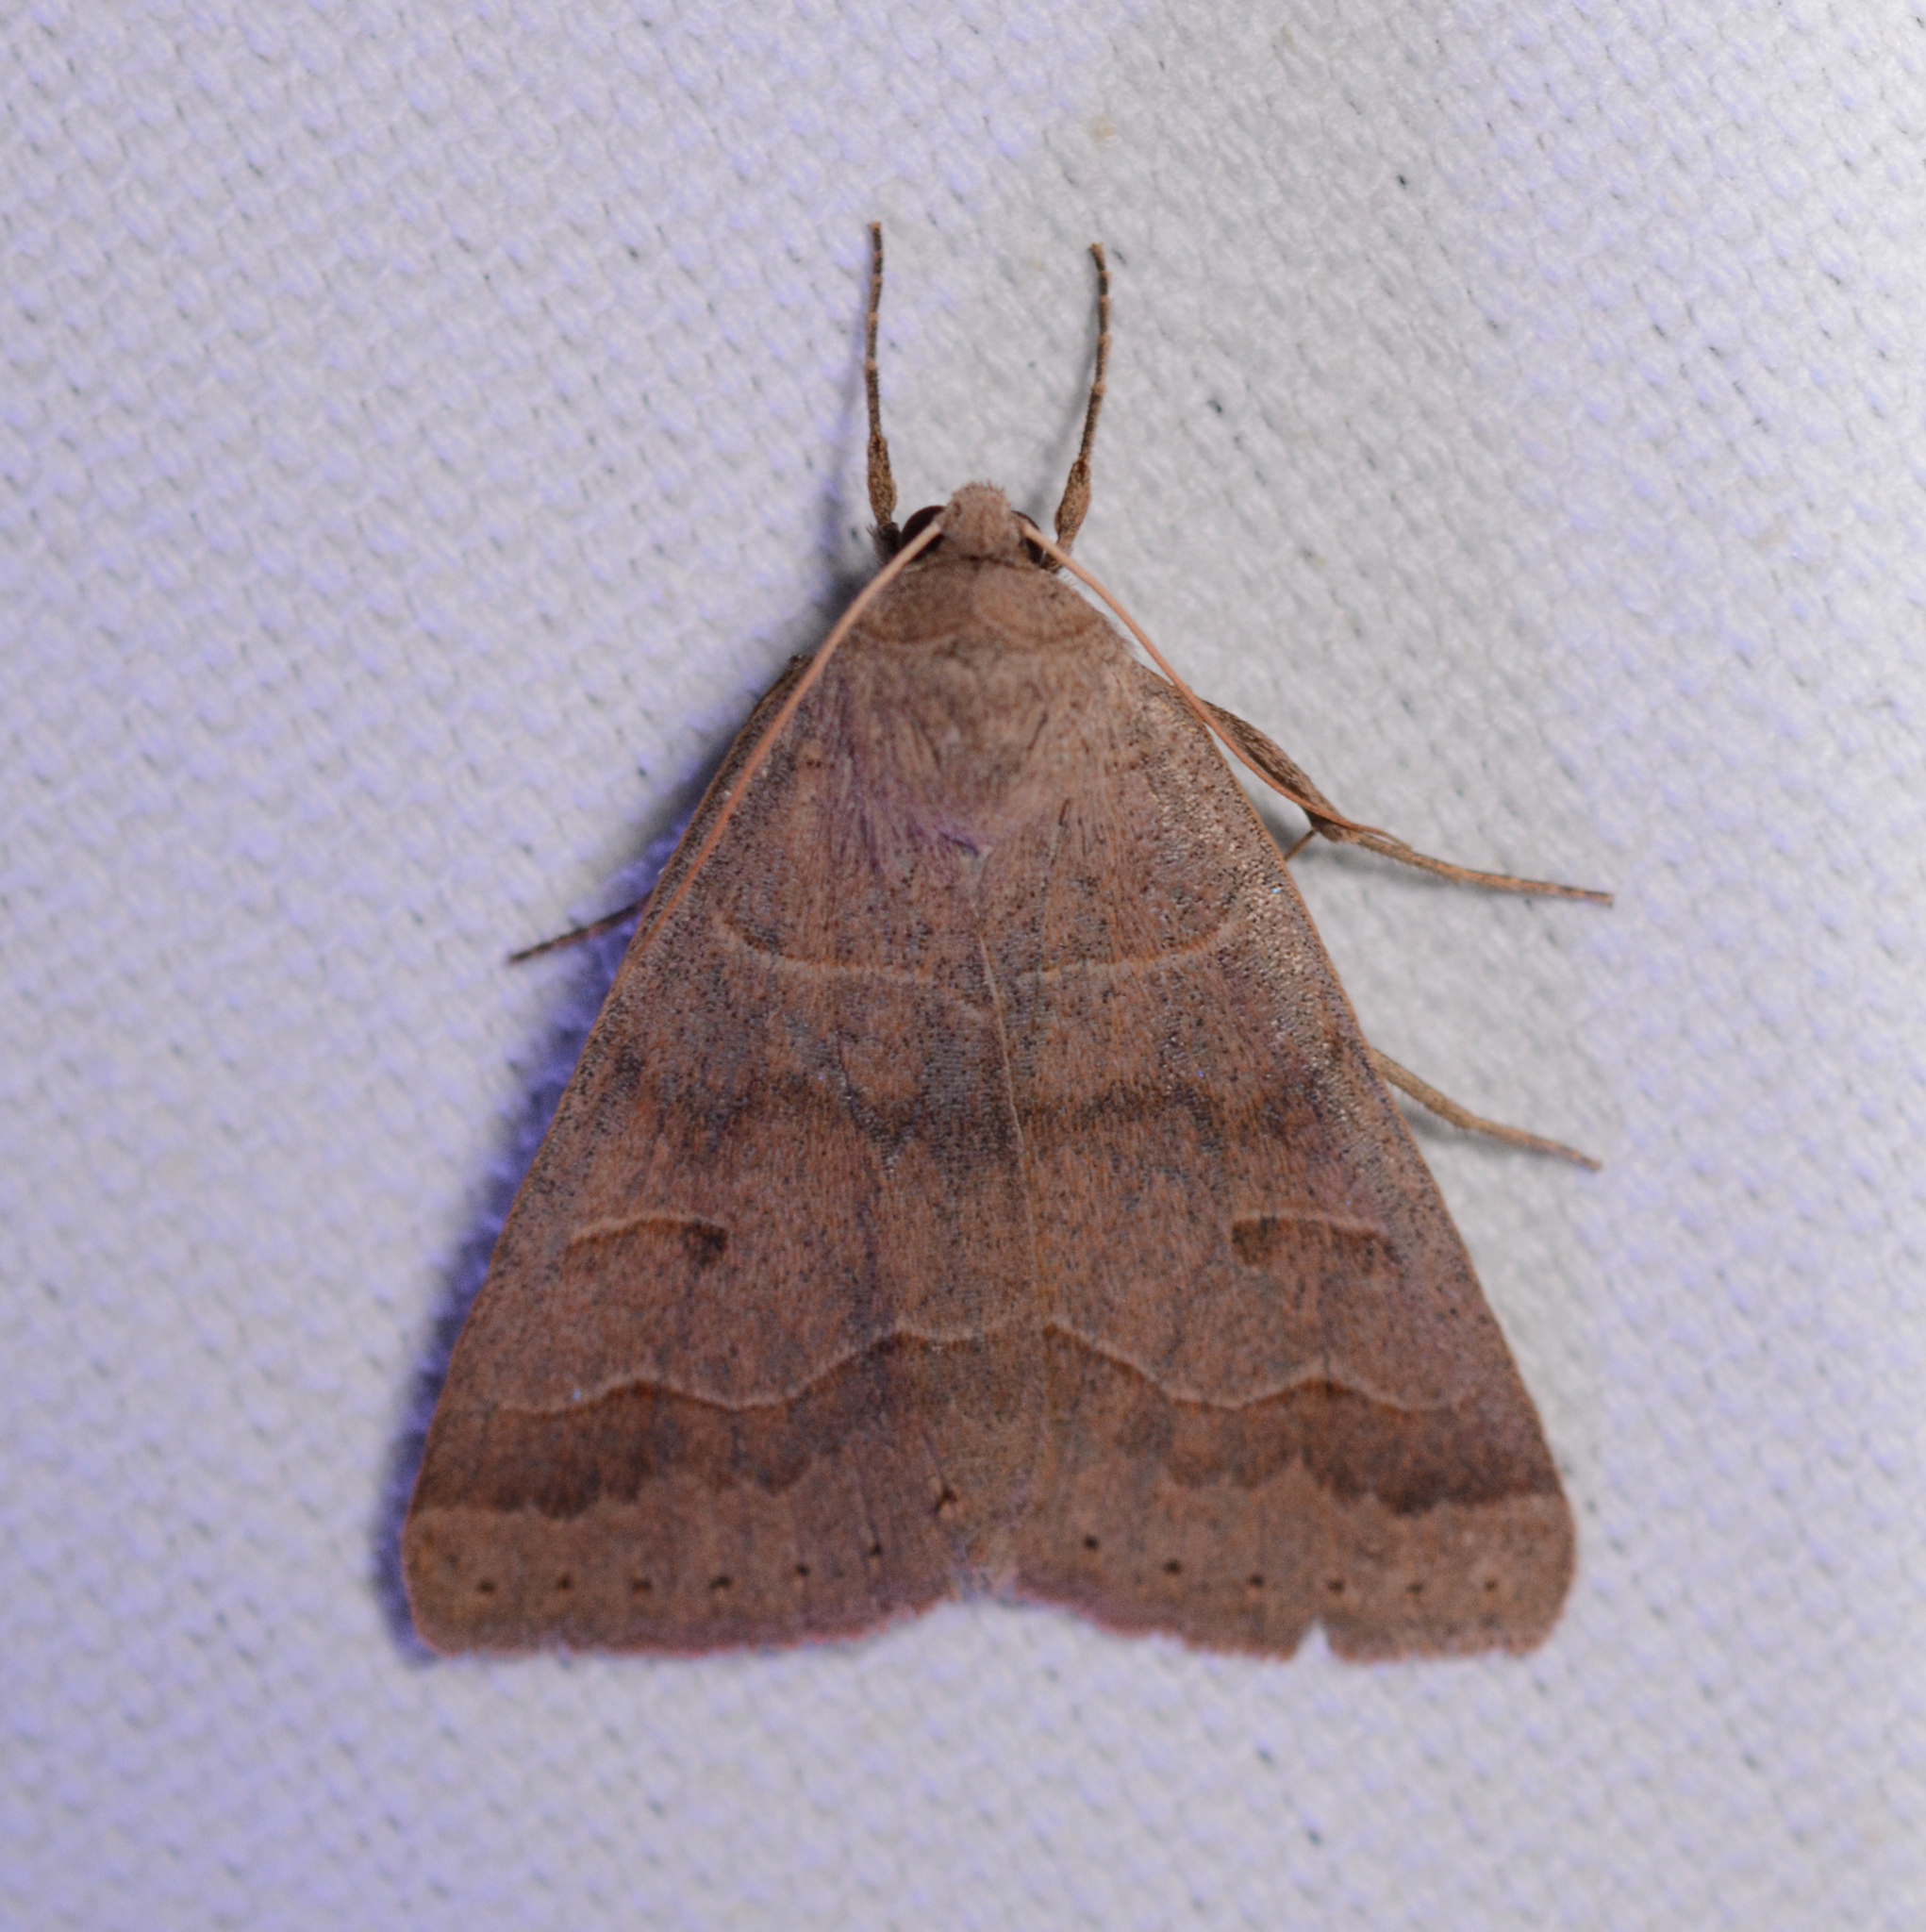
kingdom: Animalia
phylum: Arthropoda
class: Insecta
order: Lepidoptera
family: Erebidae
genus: Phoberia
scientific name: Phoberia atomaris
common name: Common oak moth
